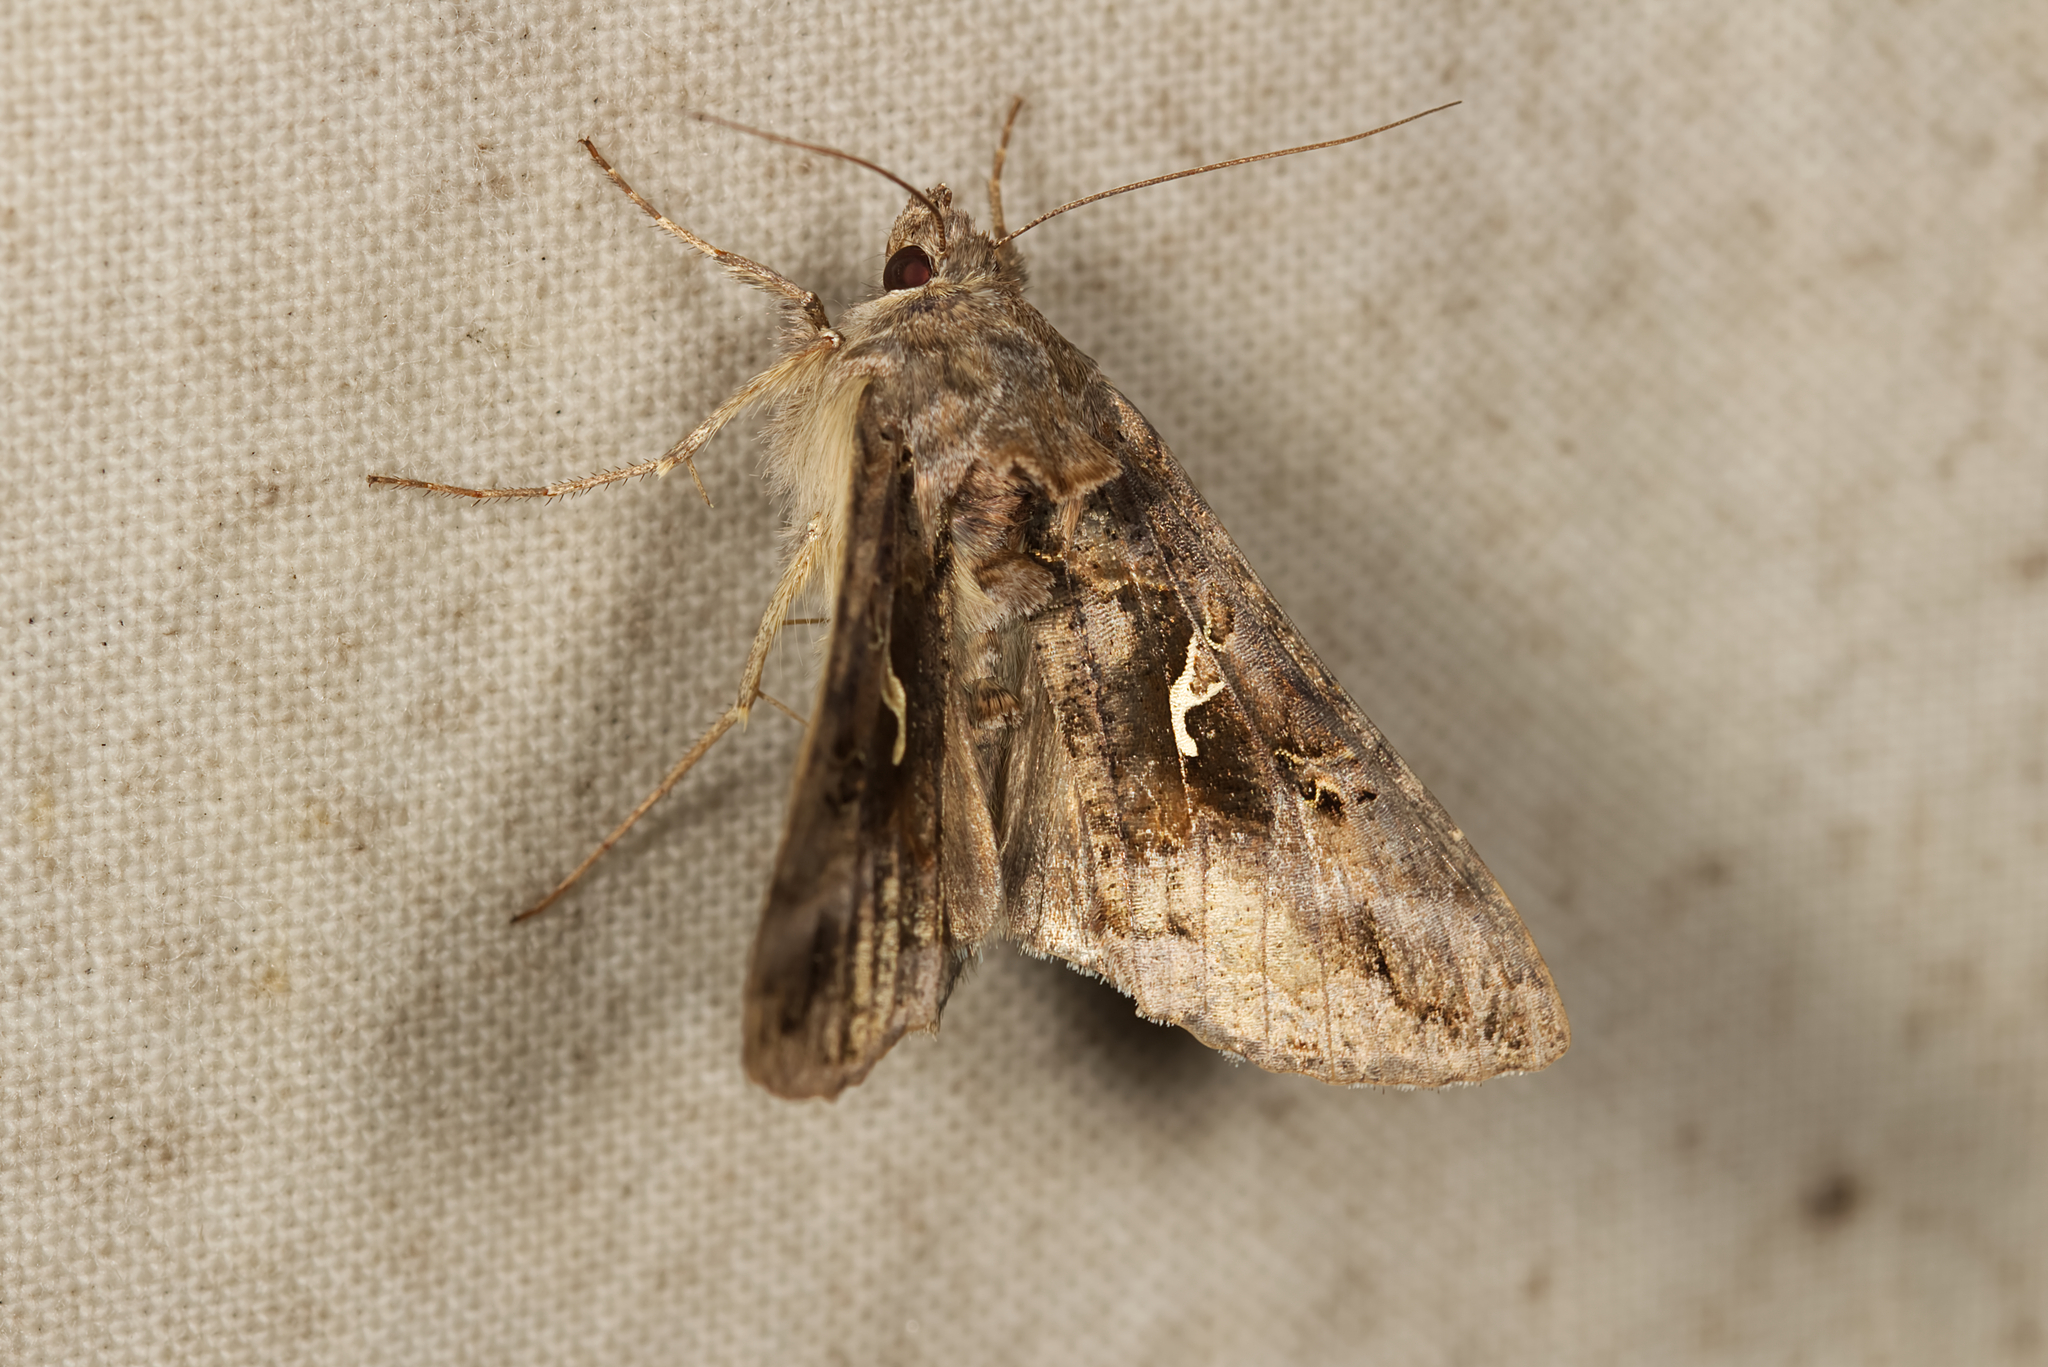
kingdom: Animalia
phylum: Arthropoda
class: Insecta
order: Lepidoptera
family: Noctuidae
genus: Autographa
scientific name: Autographa gamma
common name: Silver y
